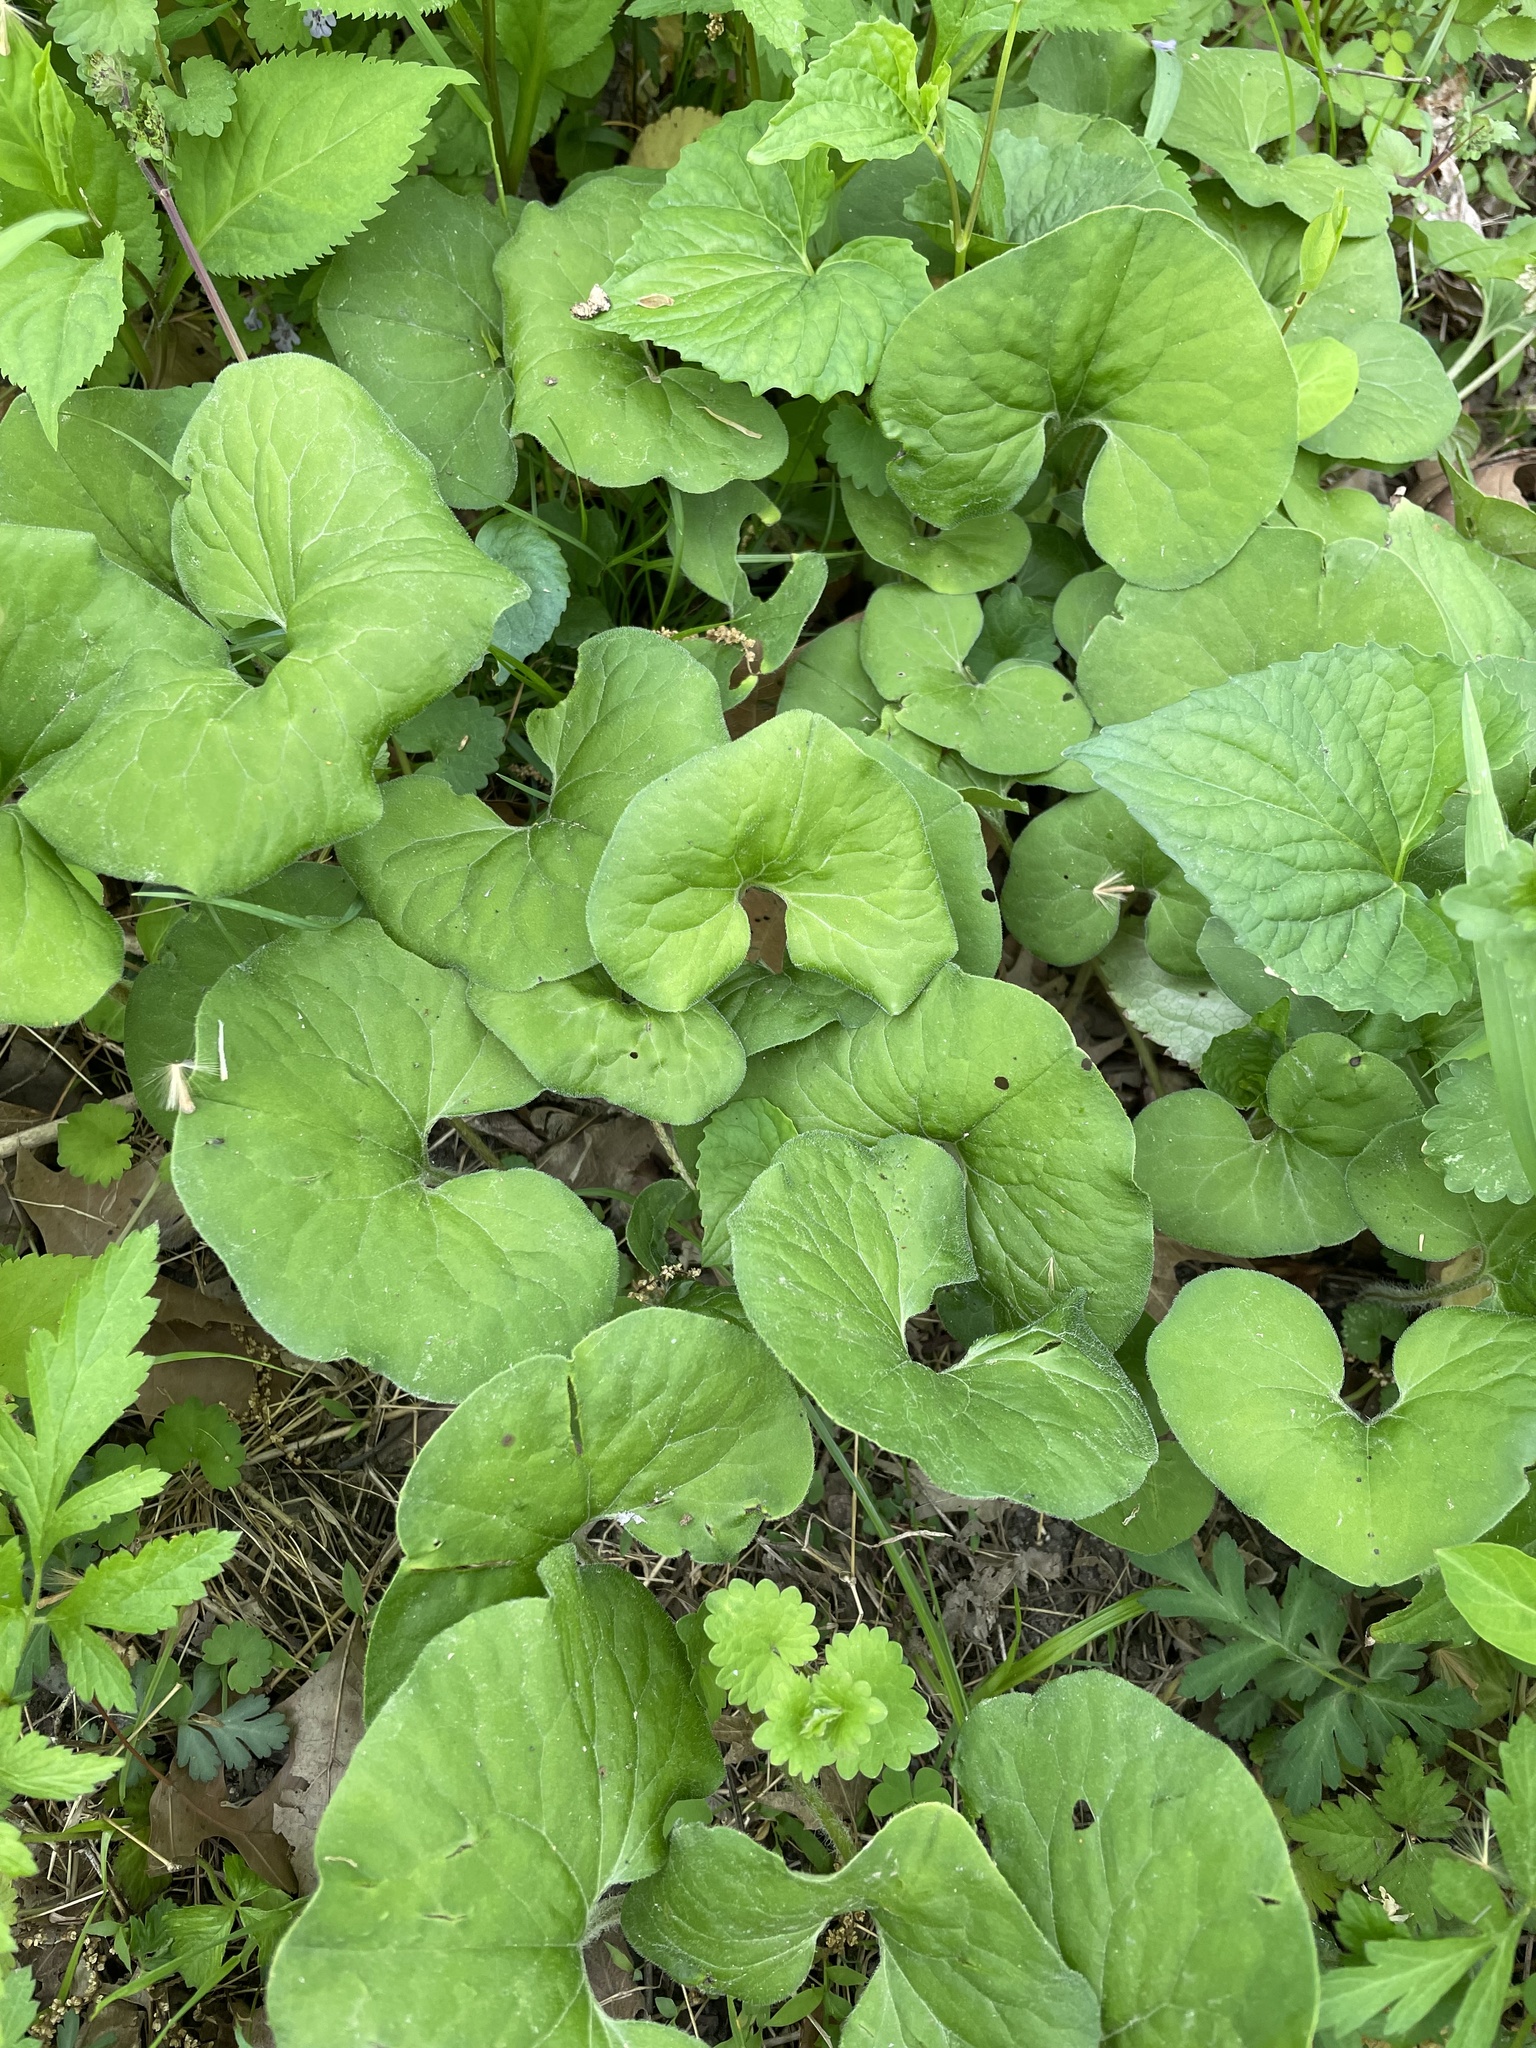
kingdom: Plantae
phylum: Tracheophyta
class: Magnoliopsida
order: Piperales
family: Aristolochiaceae
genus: Asarum
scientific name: Asarum canadense
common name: Wild ginger
